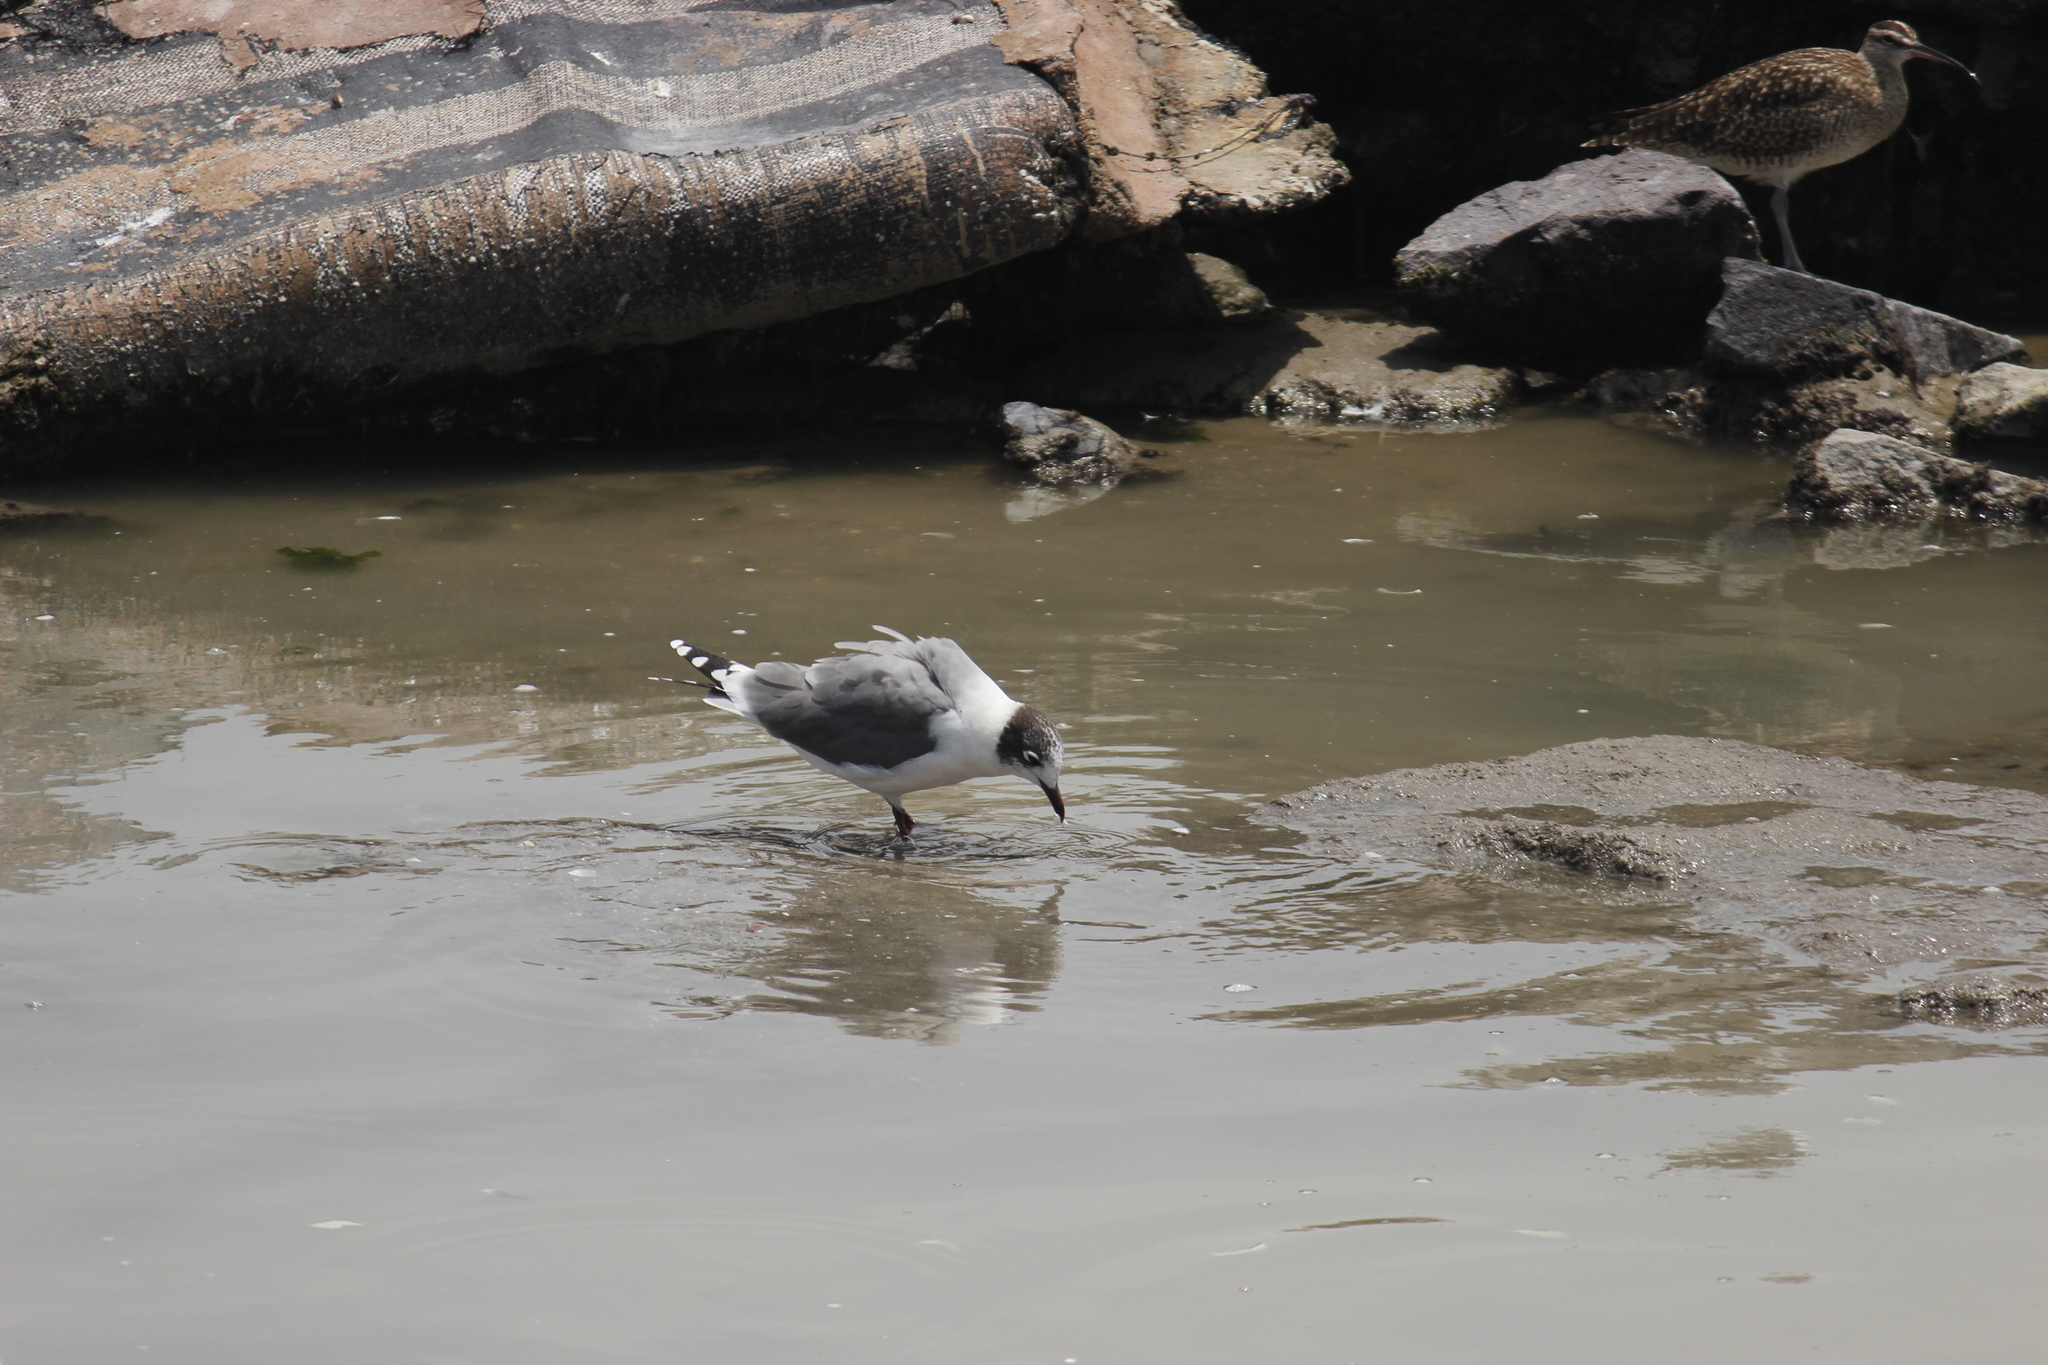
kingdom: Animalia
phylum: Chordata
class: Aves
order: Charadriiformes
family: Laridae
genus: Leucophaeus
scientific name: Leucophaeus pipixcan
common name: Franklin's gull
